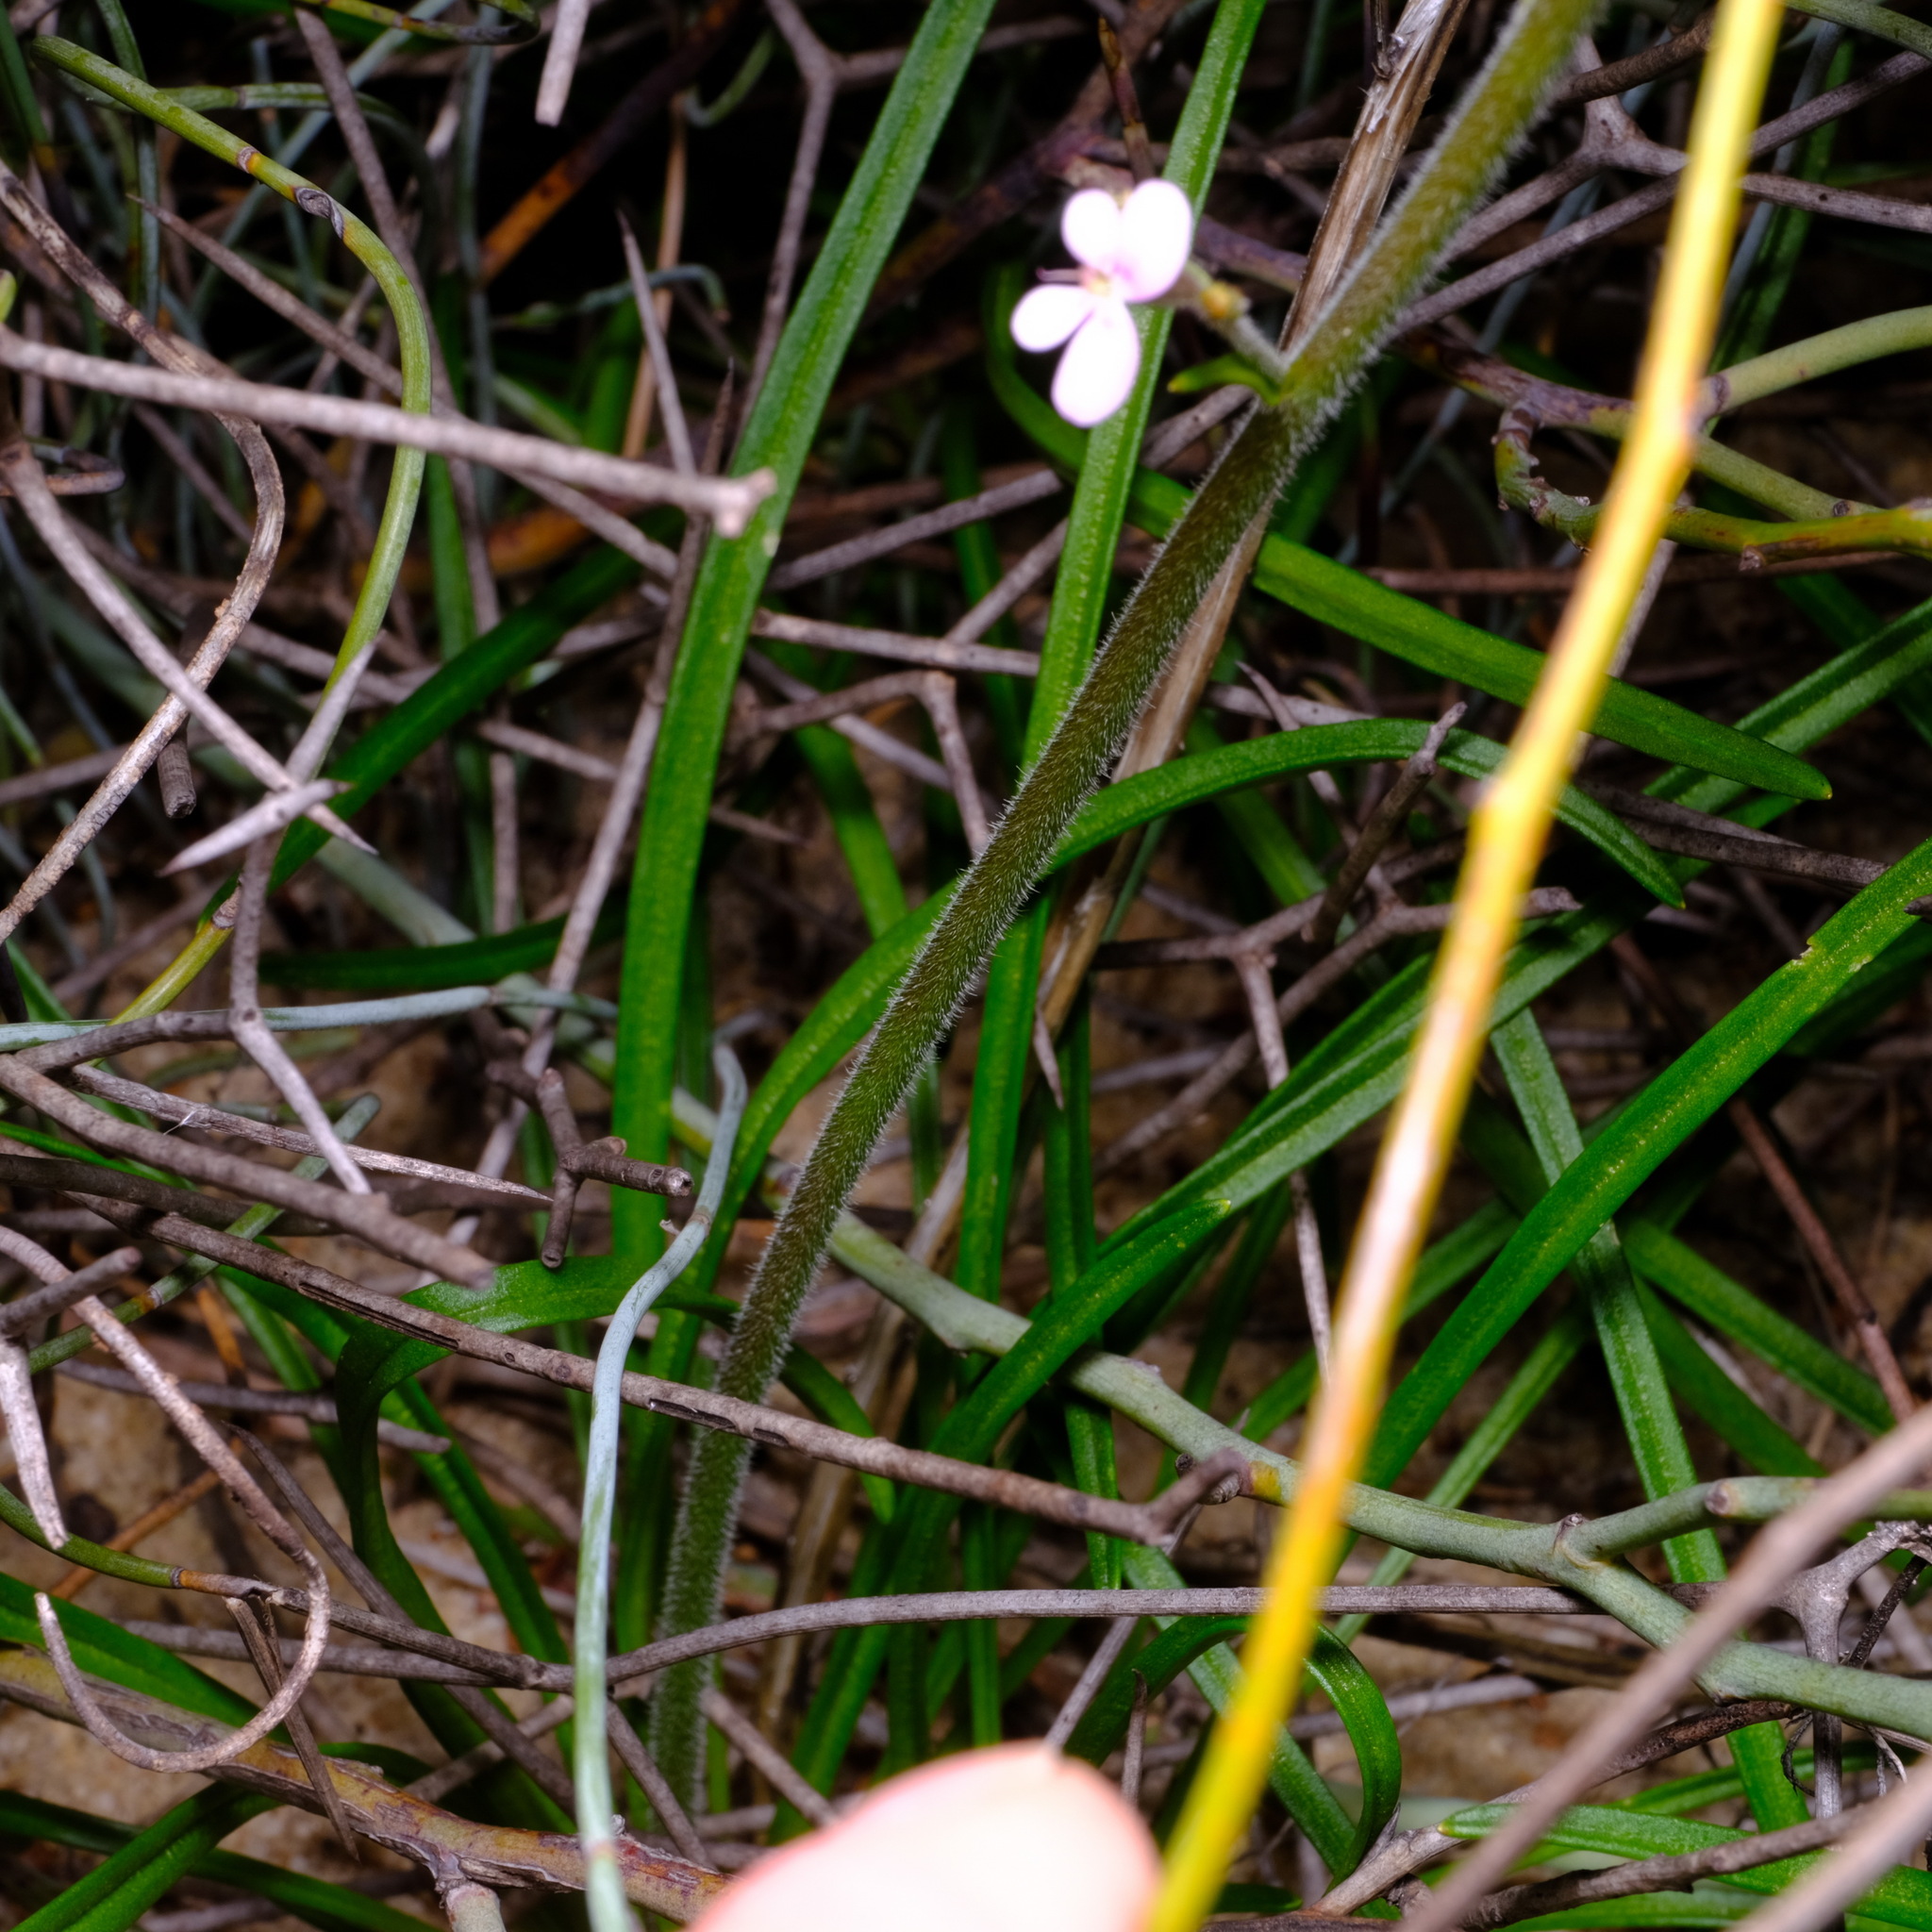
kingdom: Plantae
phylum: Tracheophyta
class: Magnoliopsida
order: Asterales
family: Stylidiaceae
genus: Stylidium
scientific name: Stylidium elongatum
